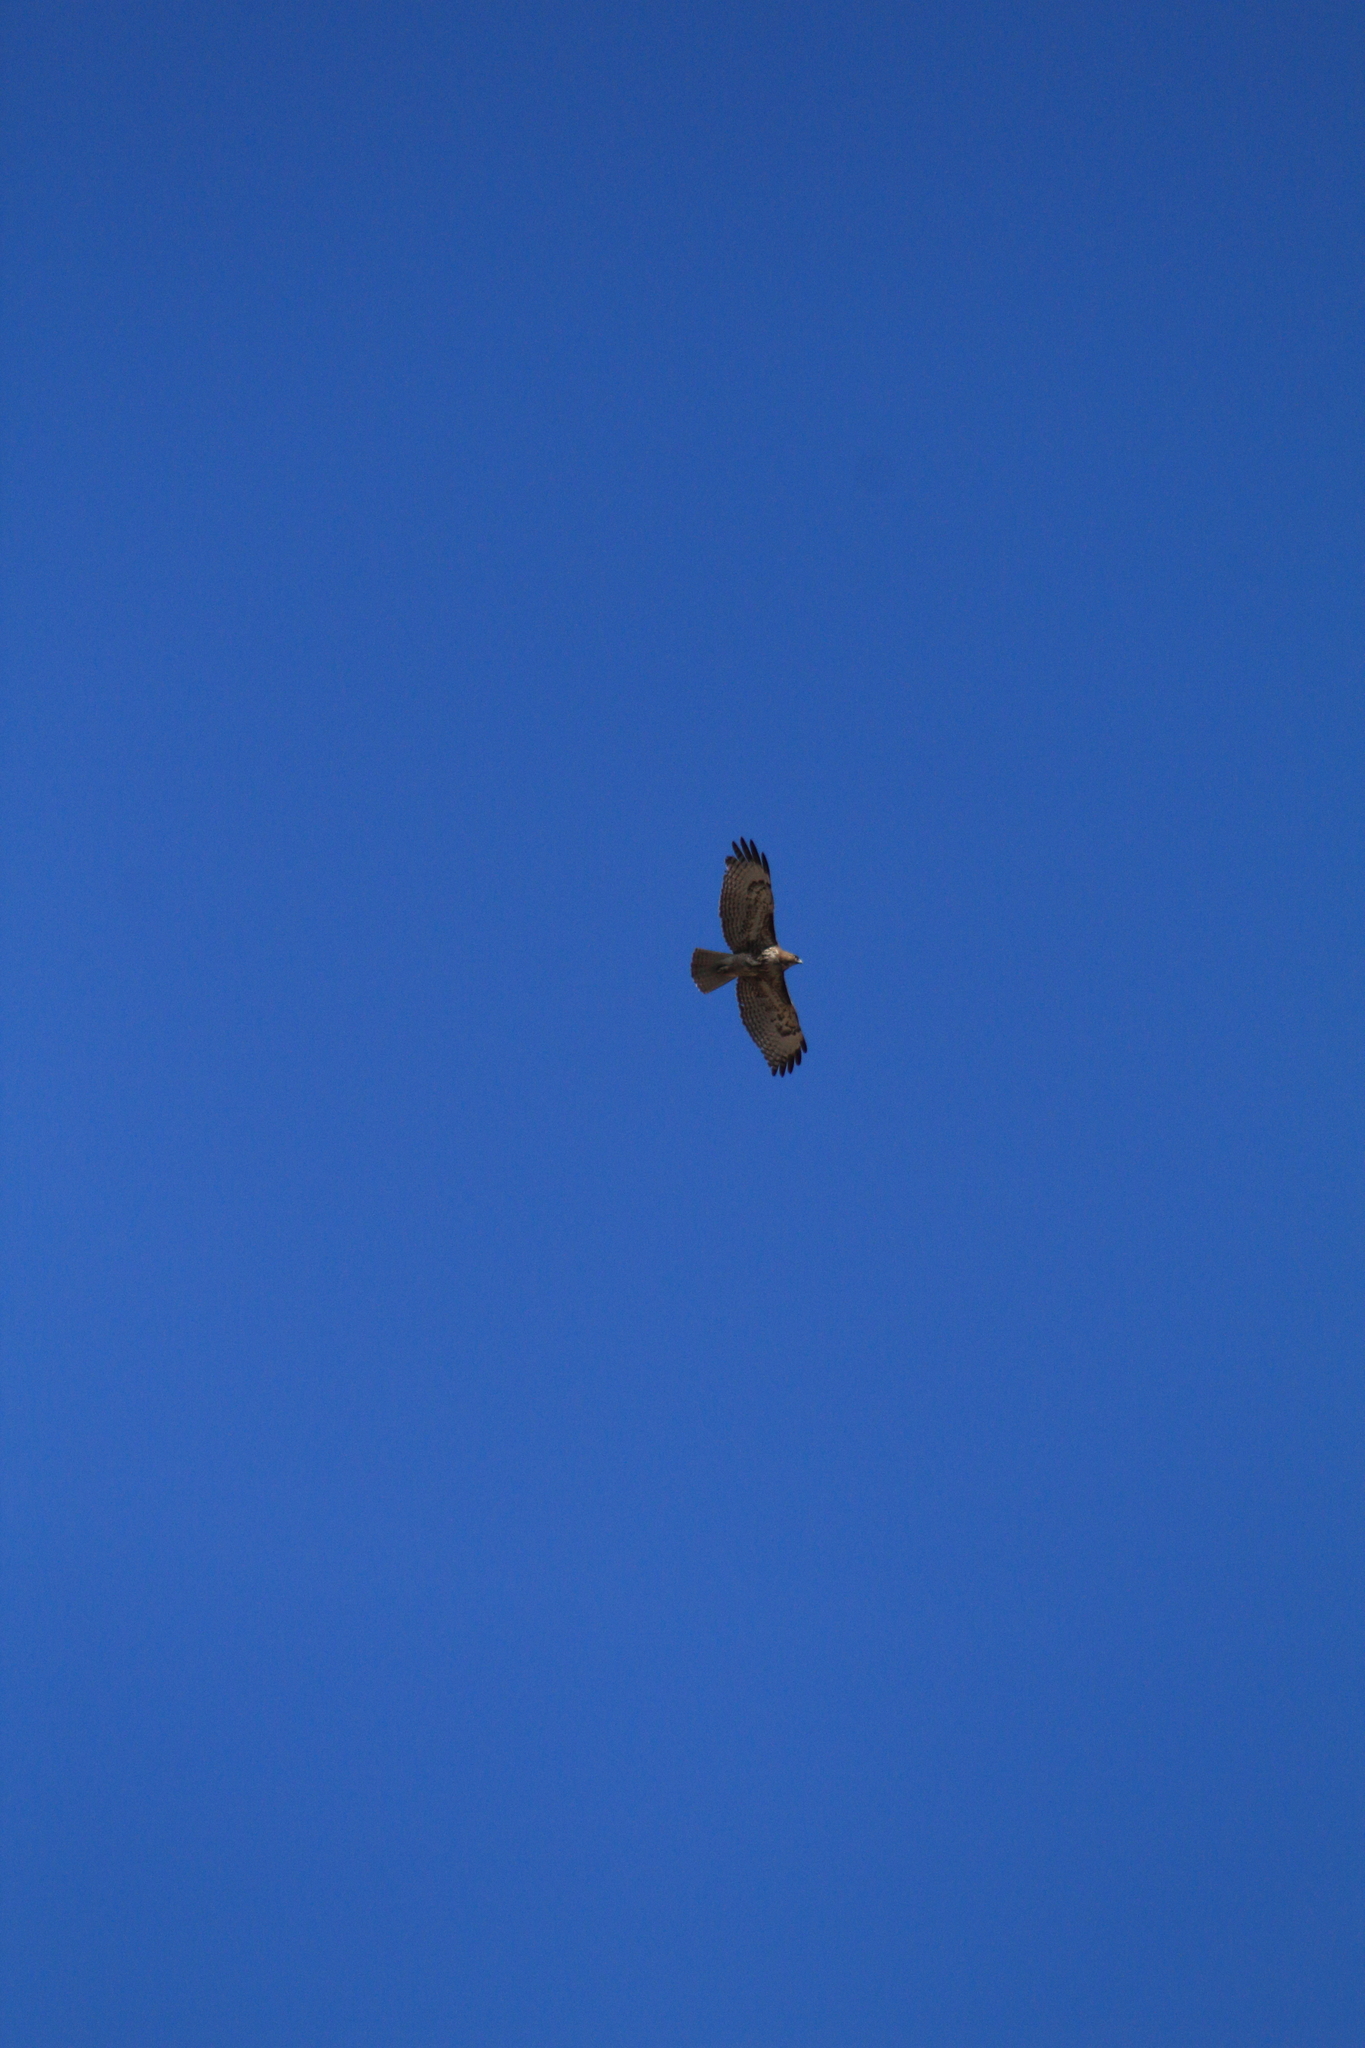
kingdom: Animalia
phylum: Chordata
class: Aves
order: Accipitriformes
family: Accipitridae
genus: Buteo
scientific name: Buteo jamaicensis
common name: Red-tailed hawk
